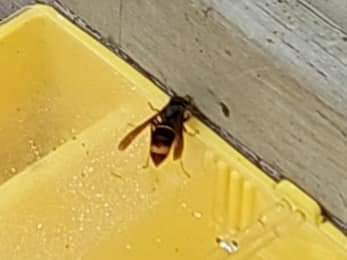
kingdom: Animalia
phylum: Arthropoda
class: Insecta
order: Hymenoptera
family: Vespidae
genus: Vespa
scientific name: Vespa velutina
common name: Asian hornet
